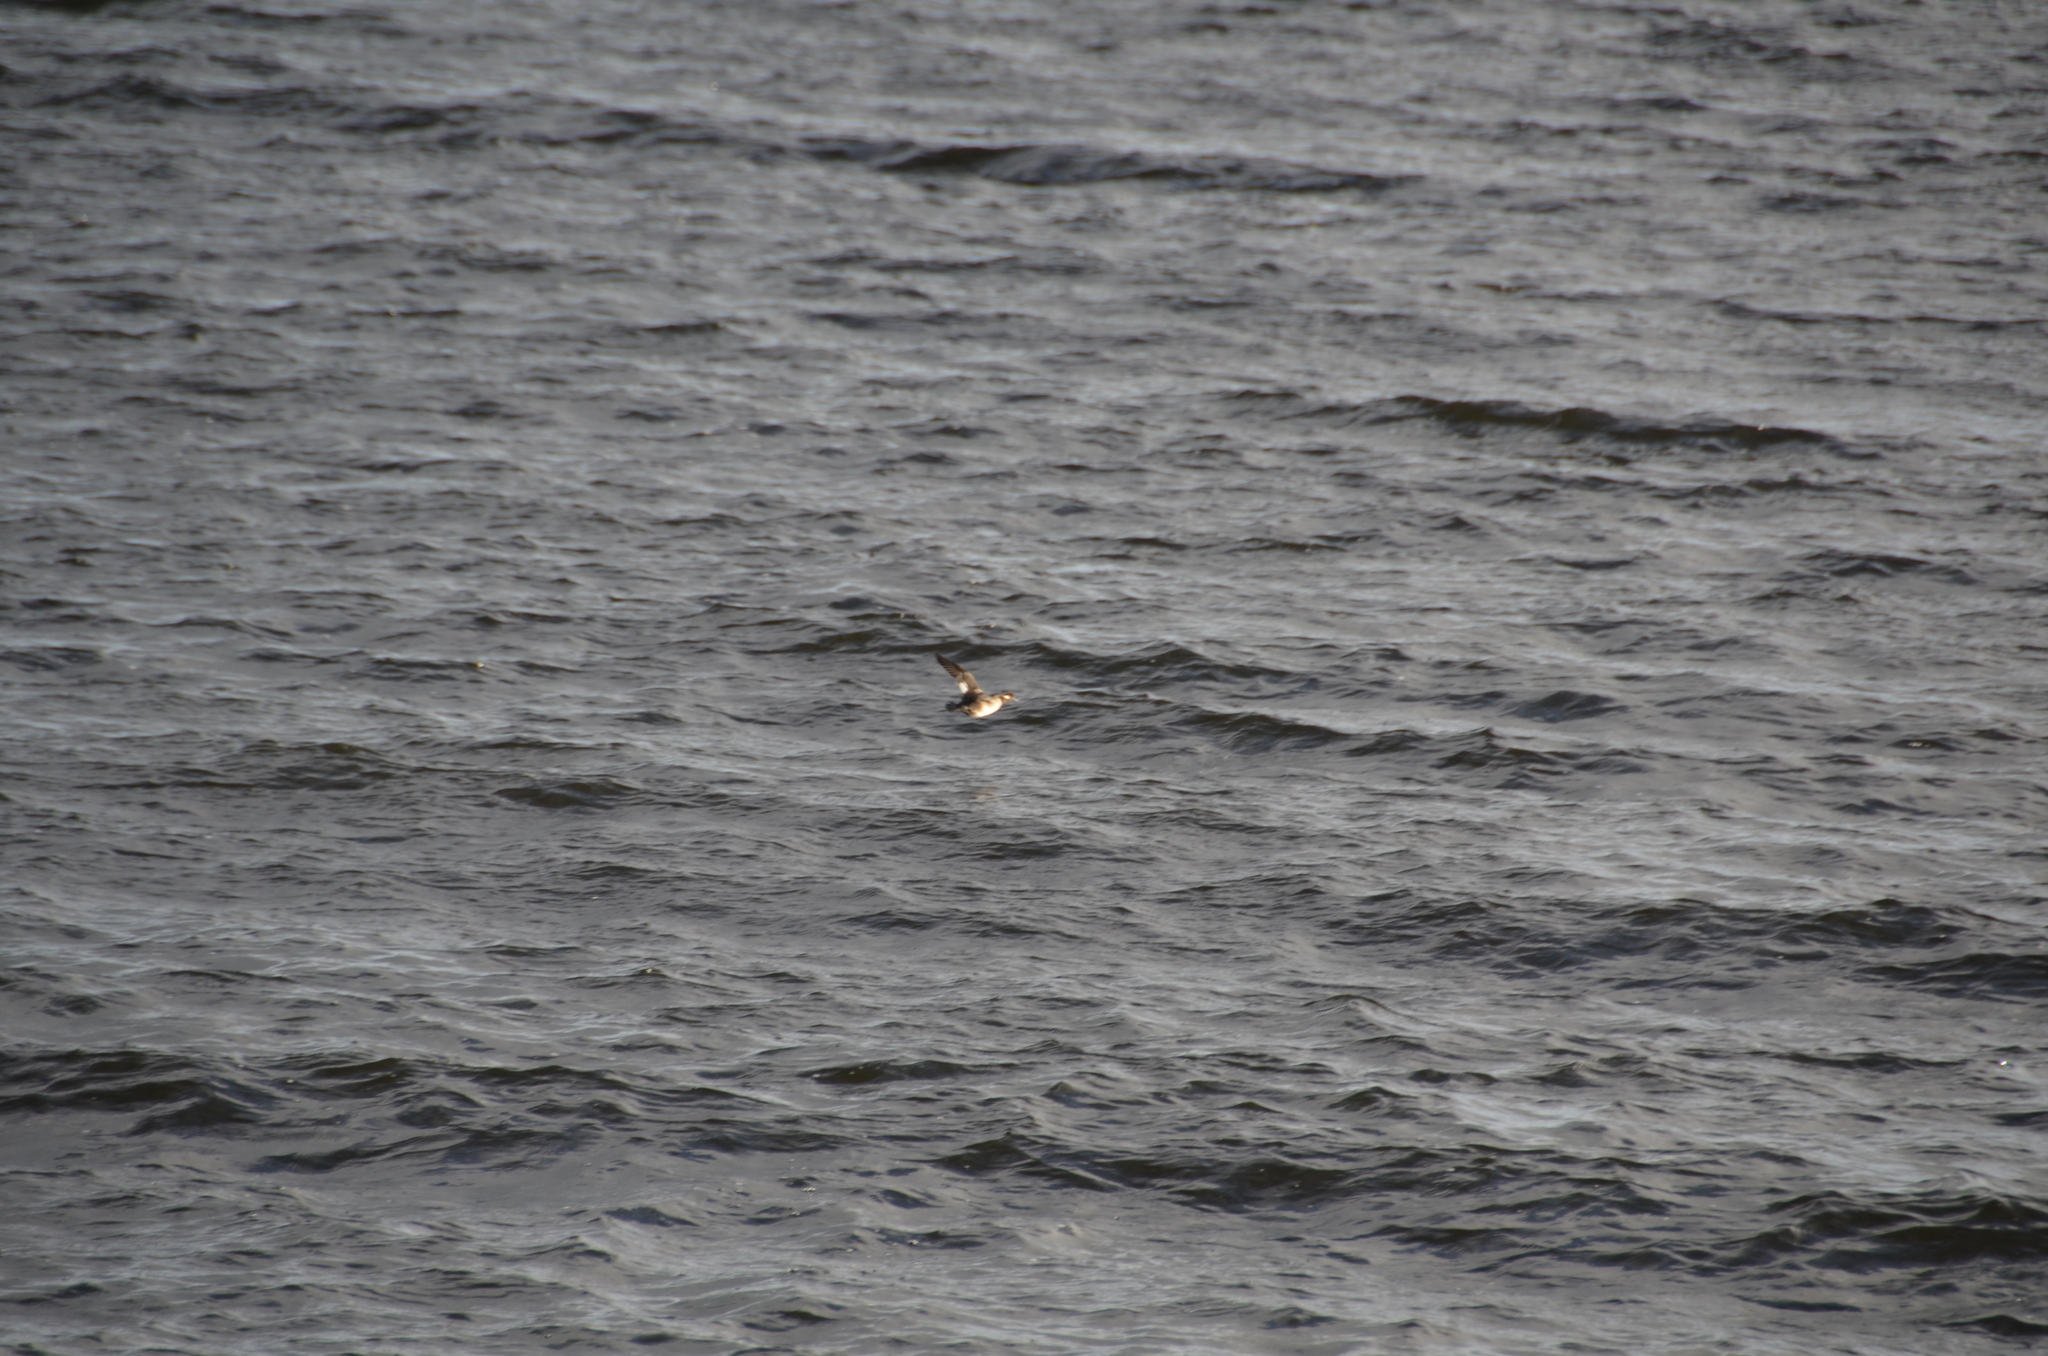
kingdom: Animalia
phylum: Chordata
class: Aves
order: Anseriformes
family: Anatidae
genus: Bucephala
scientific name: Bucephala albeola
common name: Bufflehead
